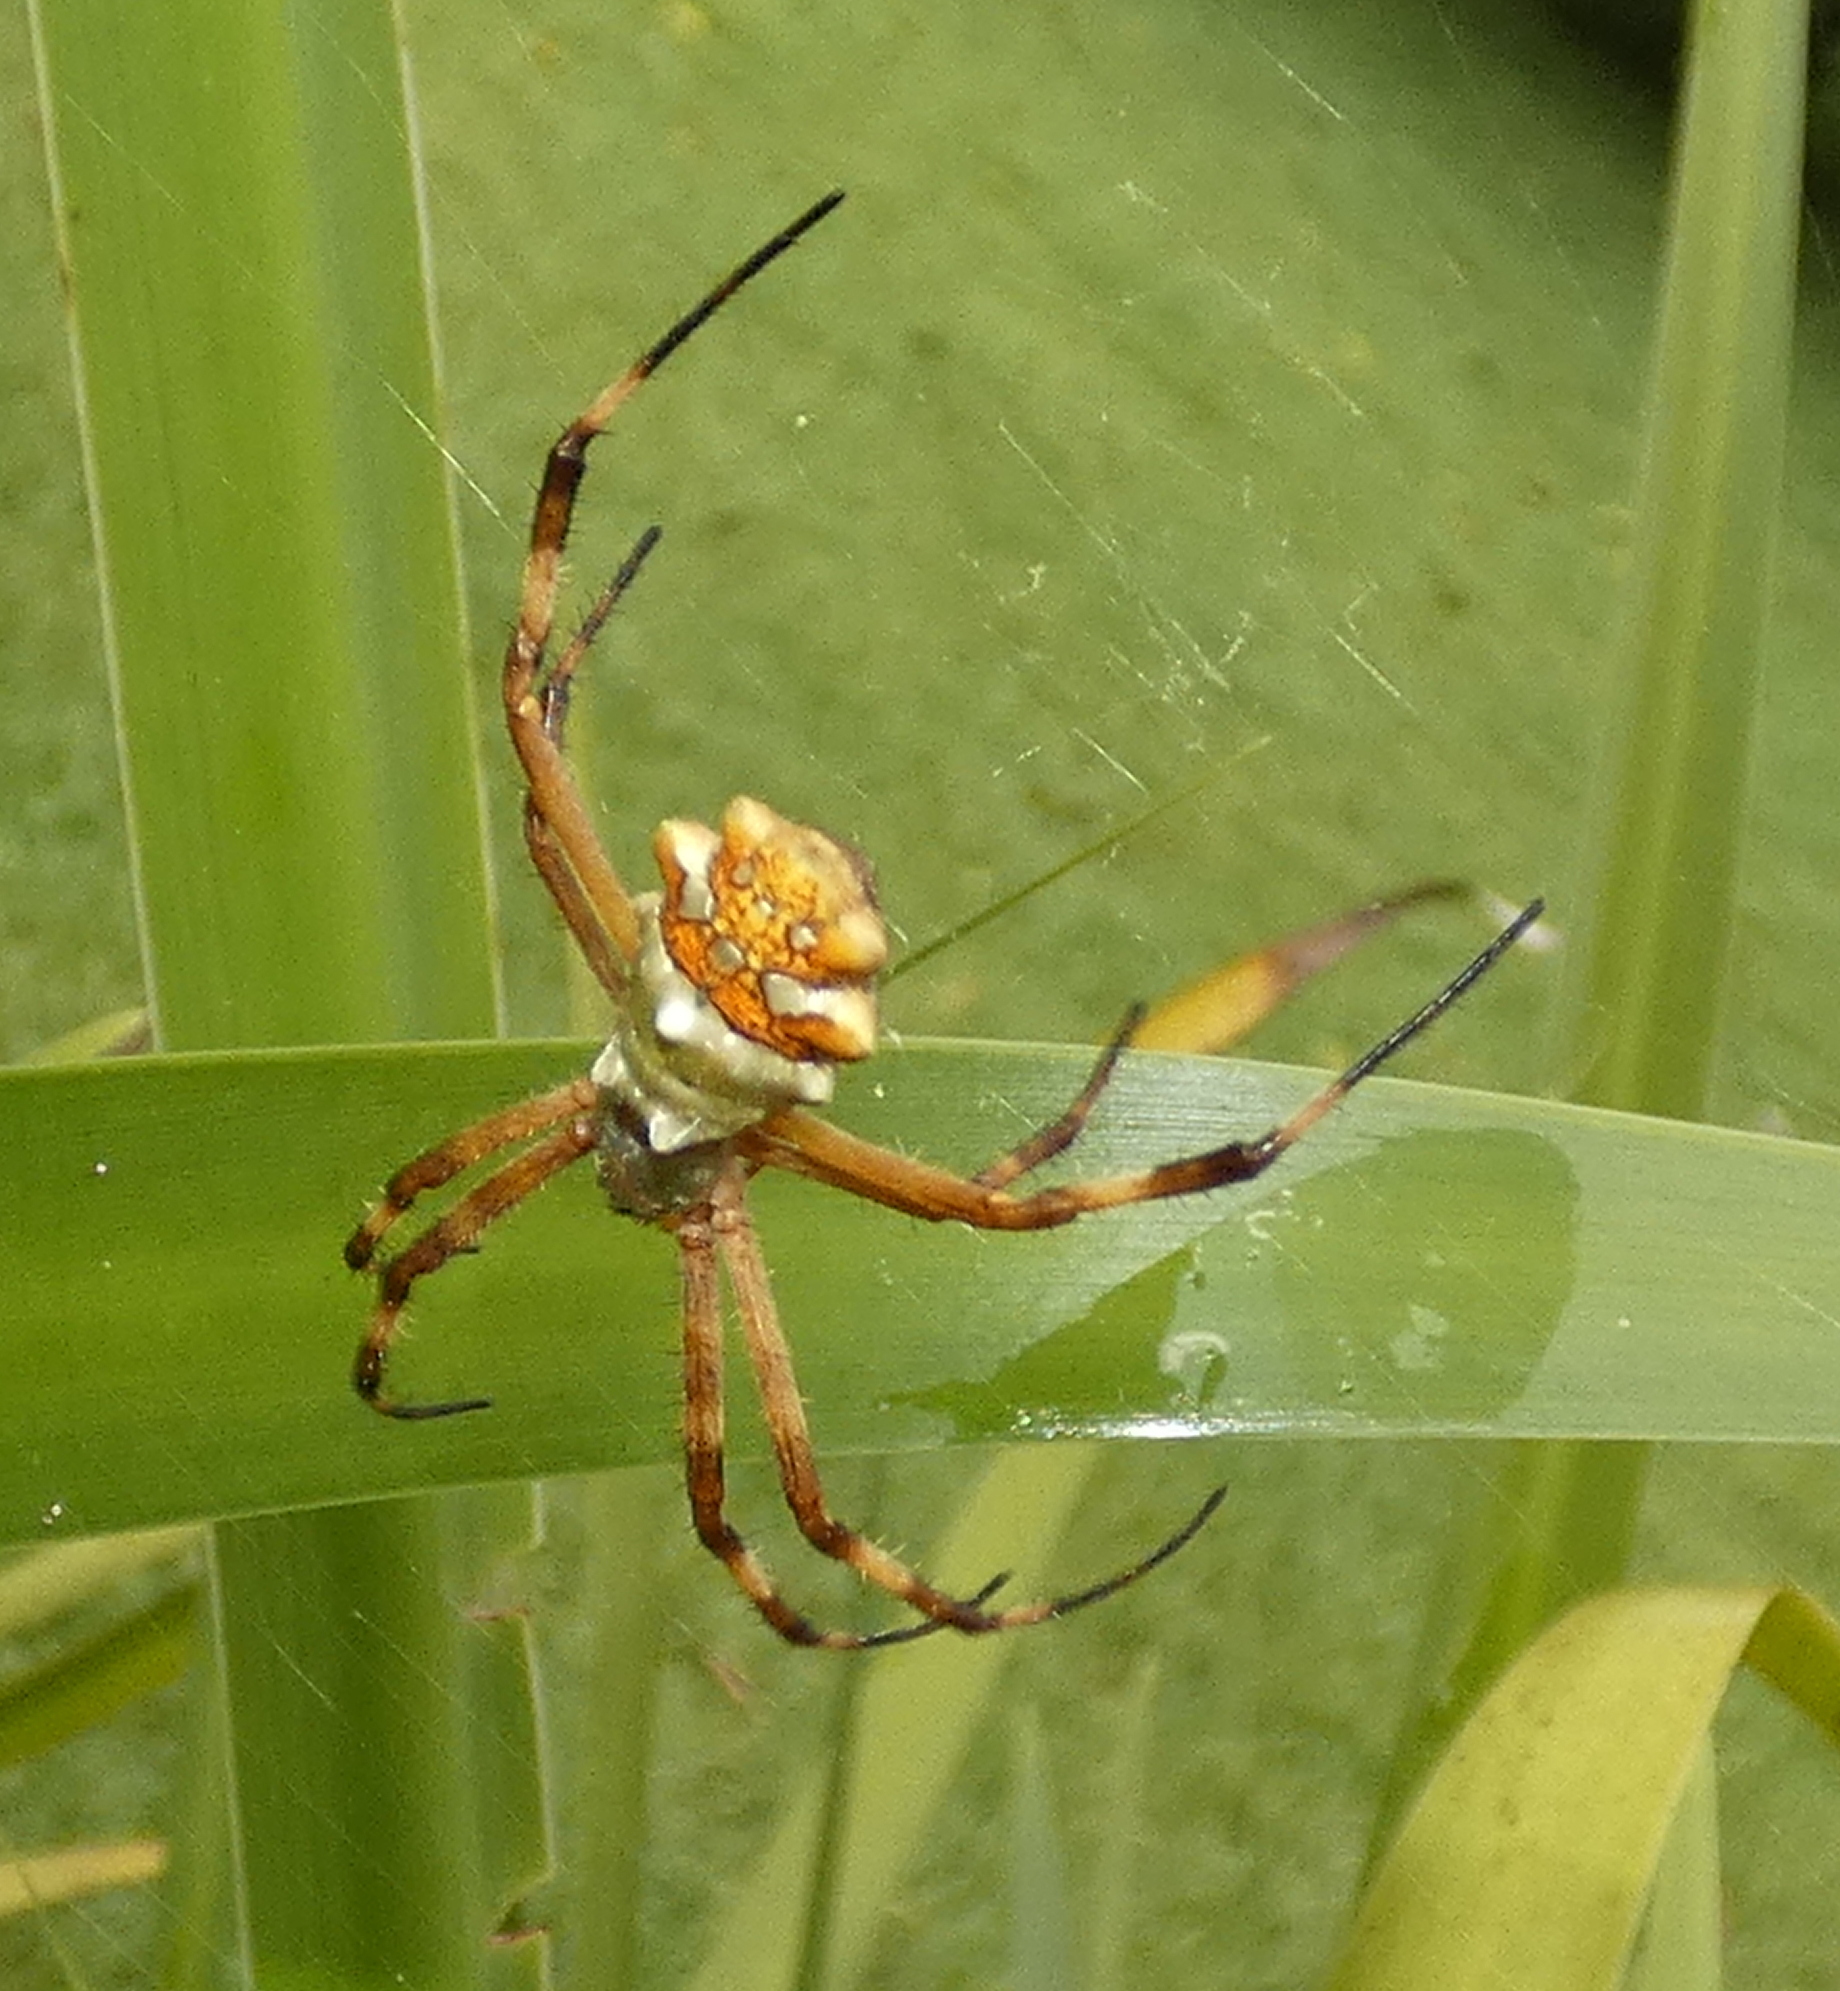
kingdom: Animalia
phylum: Arthropoda
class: Arachnida
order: Araneae
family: Araneidae
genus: Argiope
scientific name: Argiope argentata
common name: Orb weavers
